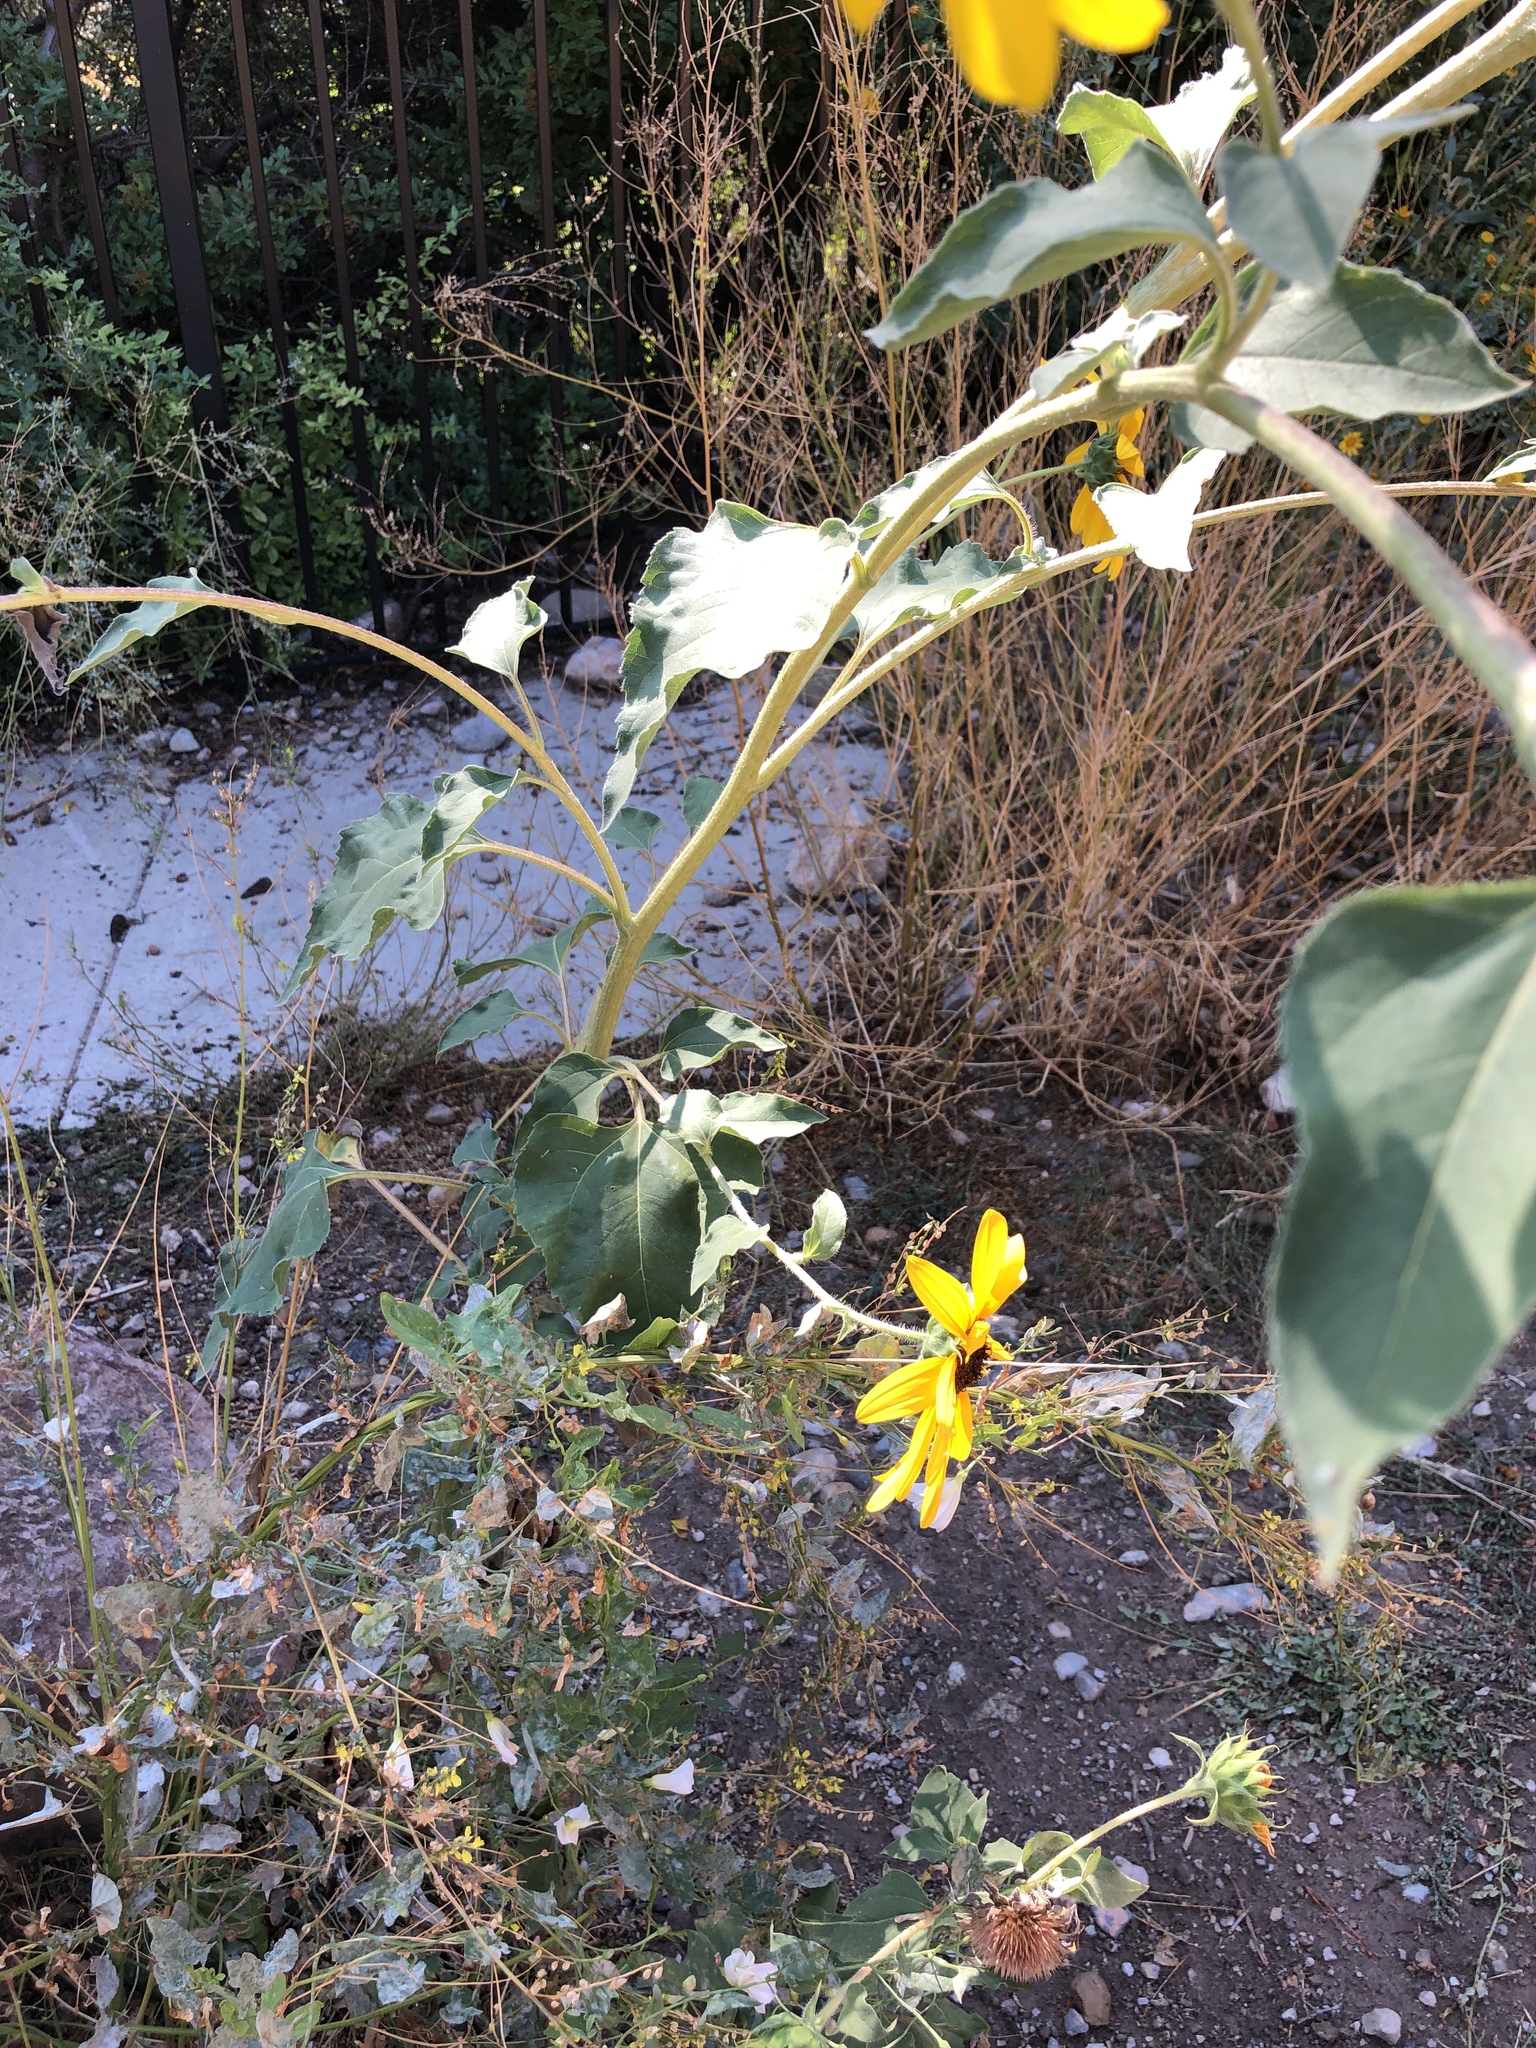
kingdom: Plantae
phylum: Tracheophyta
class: Magnoliopsida
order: Asterales
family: Asteraceae
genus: Helianthus
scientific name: Helianthus annuus
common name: Sunflower
